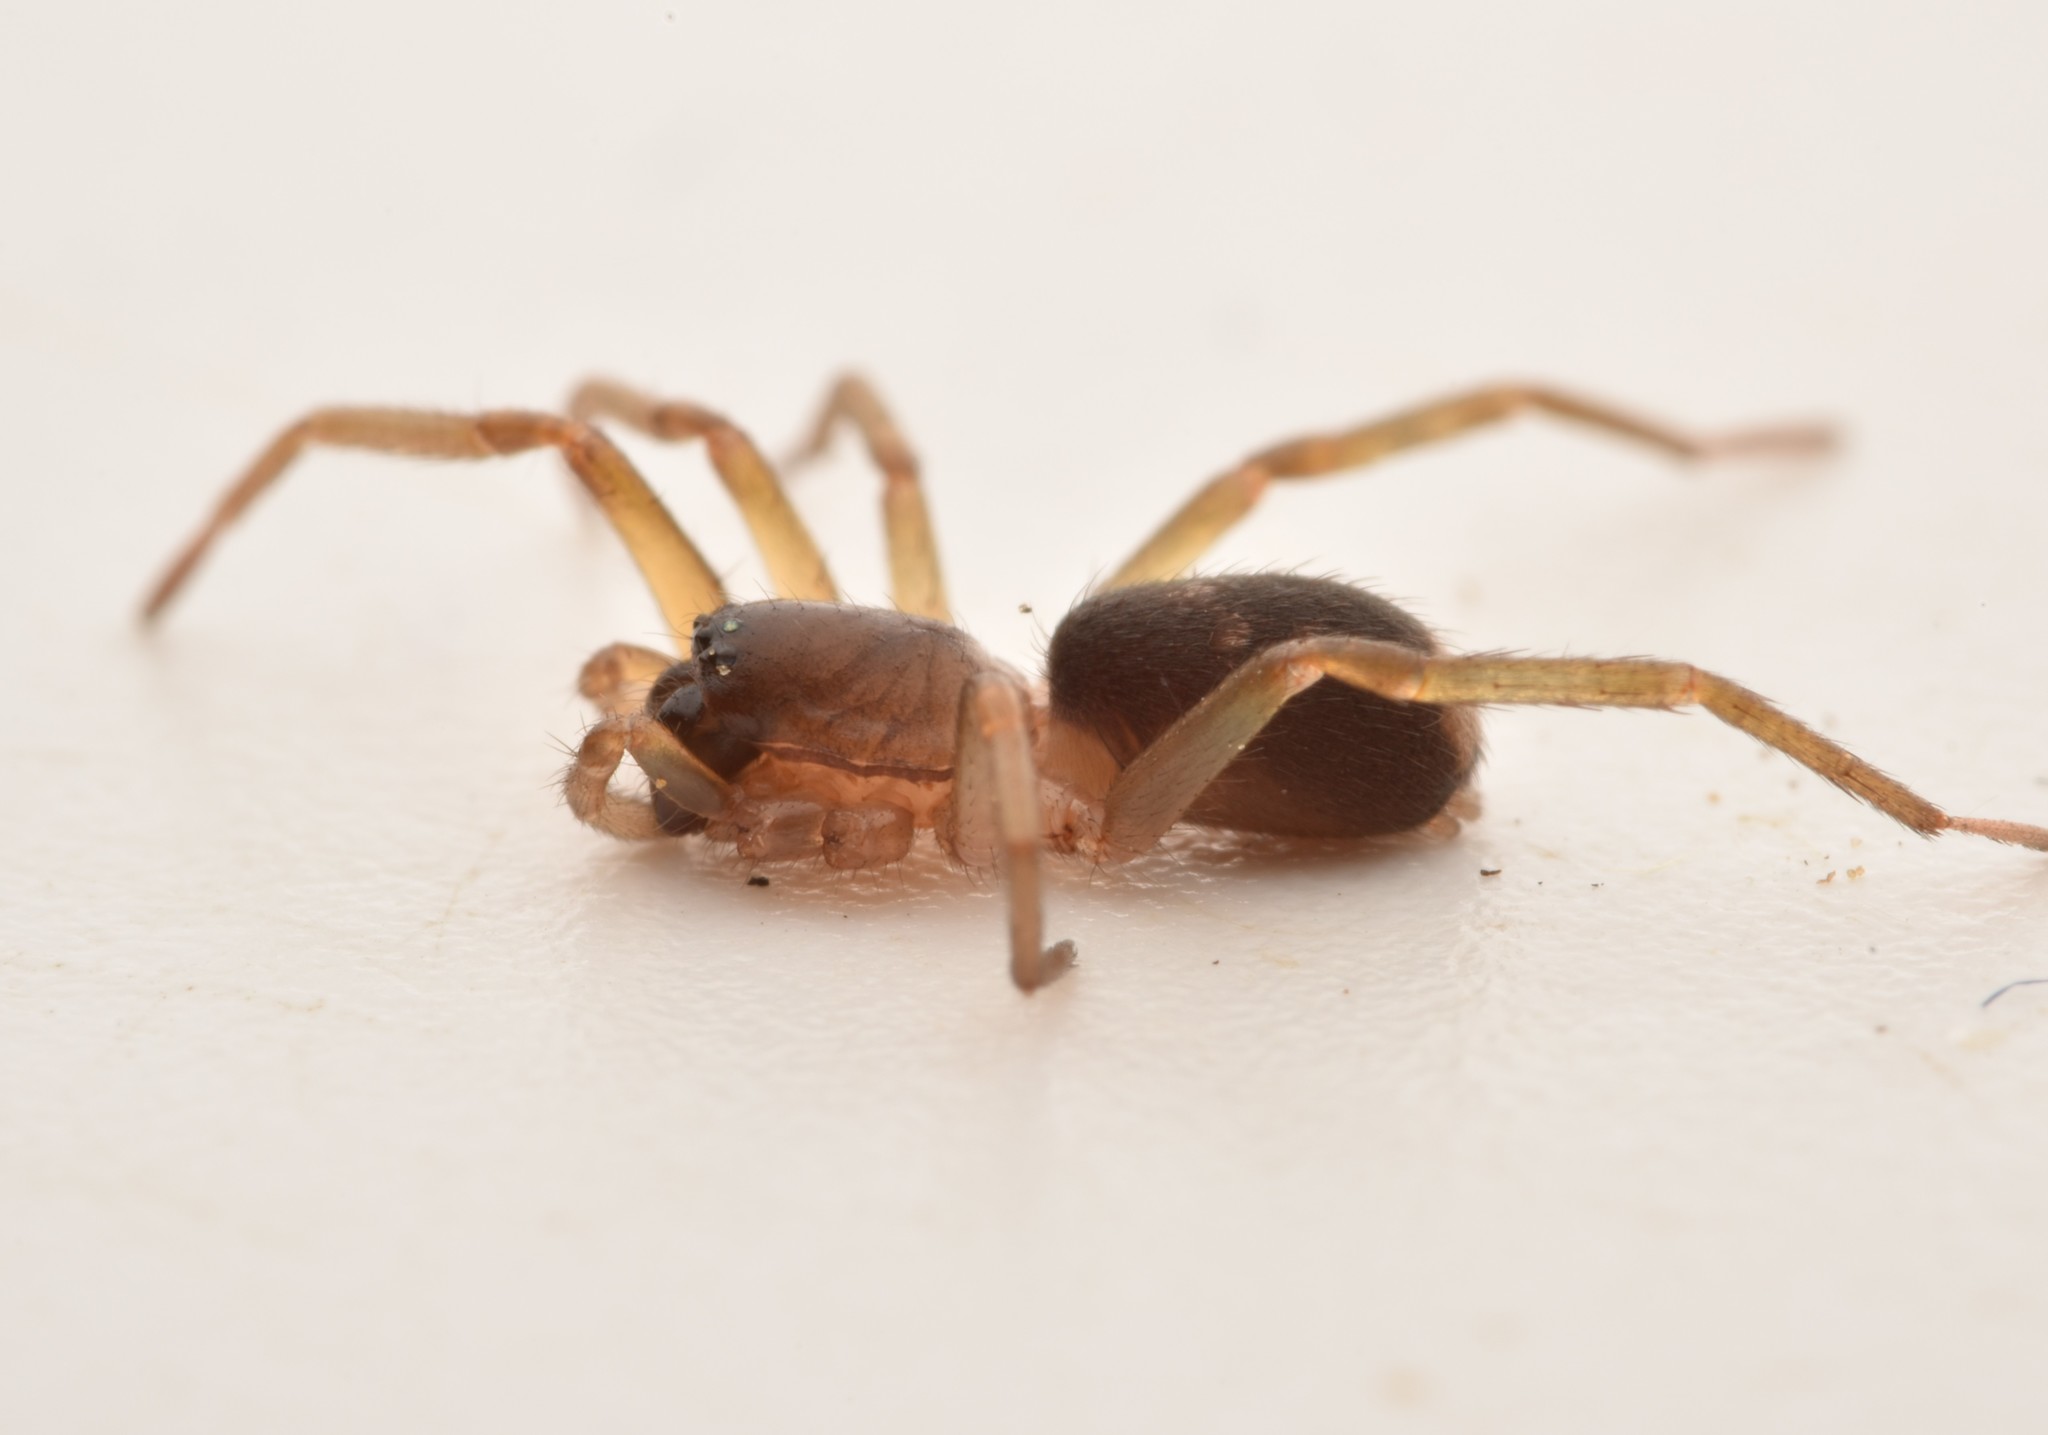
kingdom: Animalia
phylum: Arthropoda
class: Arachnida
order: Araneae
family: Corinnidae
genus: Falconina
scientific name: Falconina gracilis
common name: Antmimic spider
